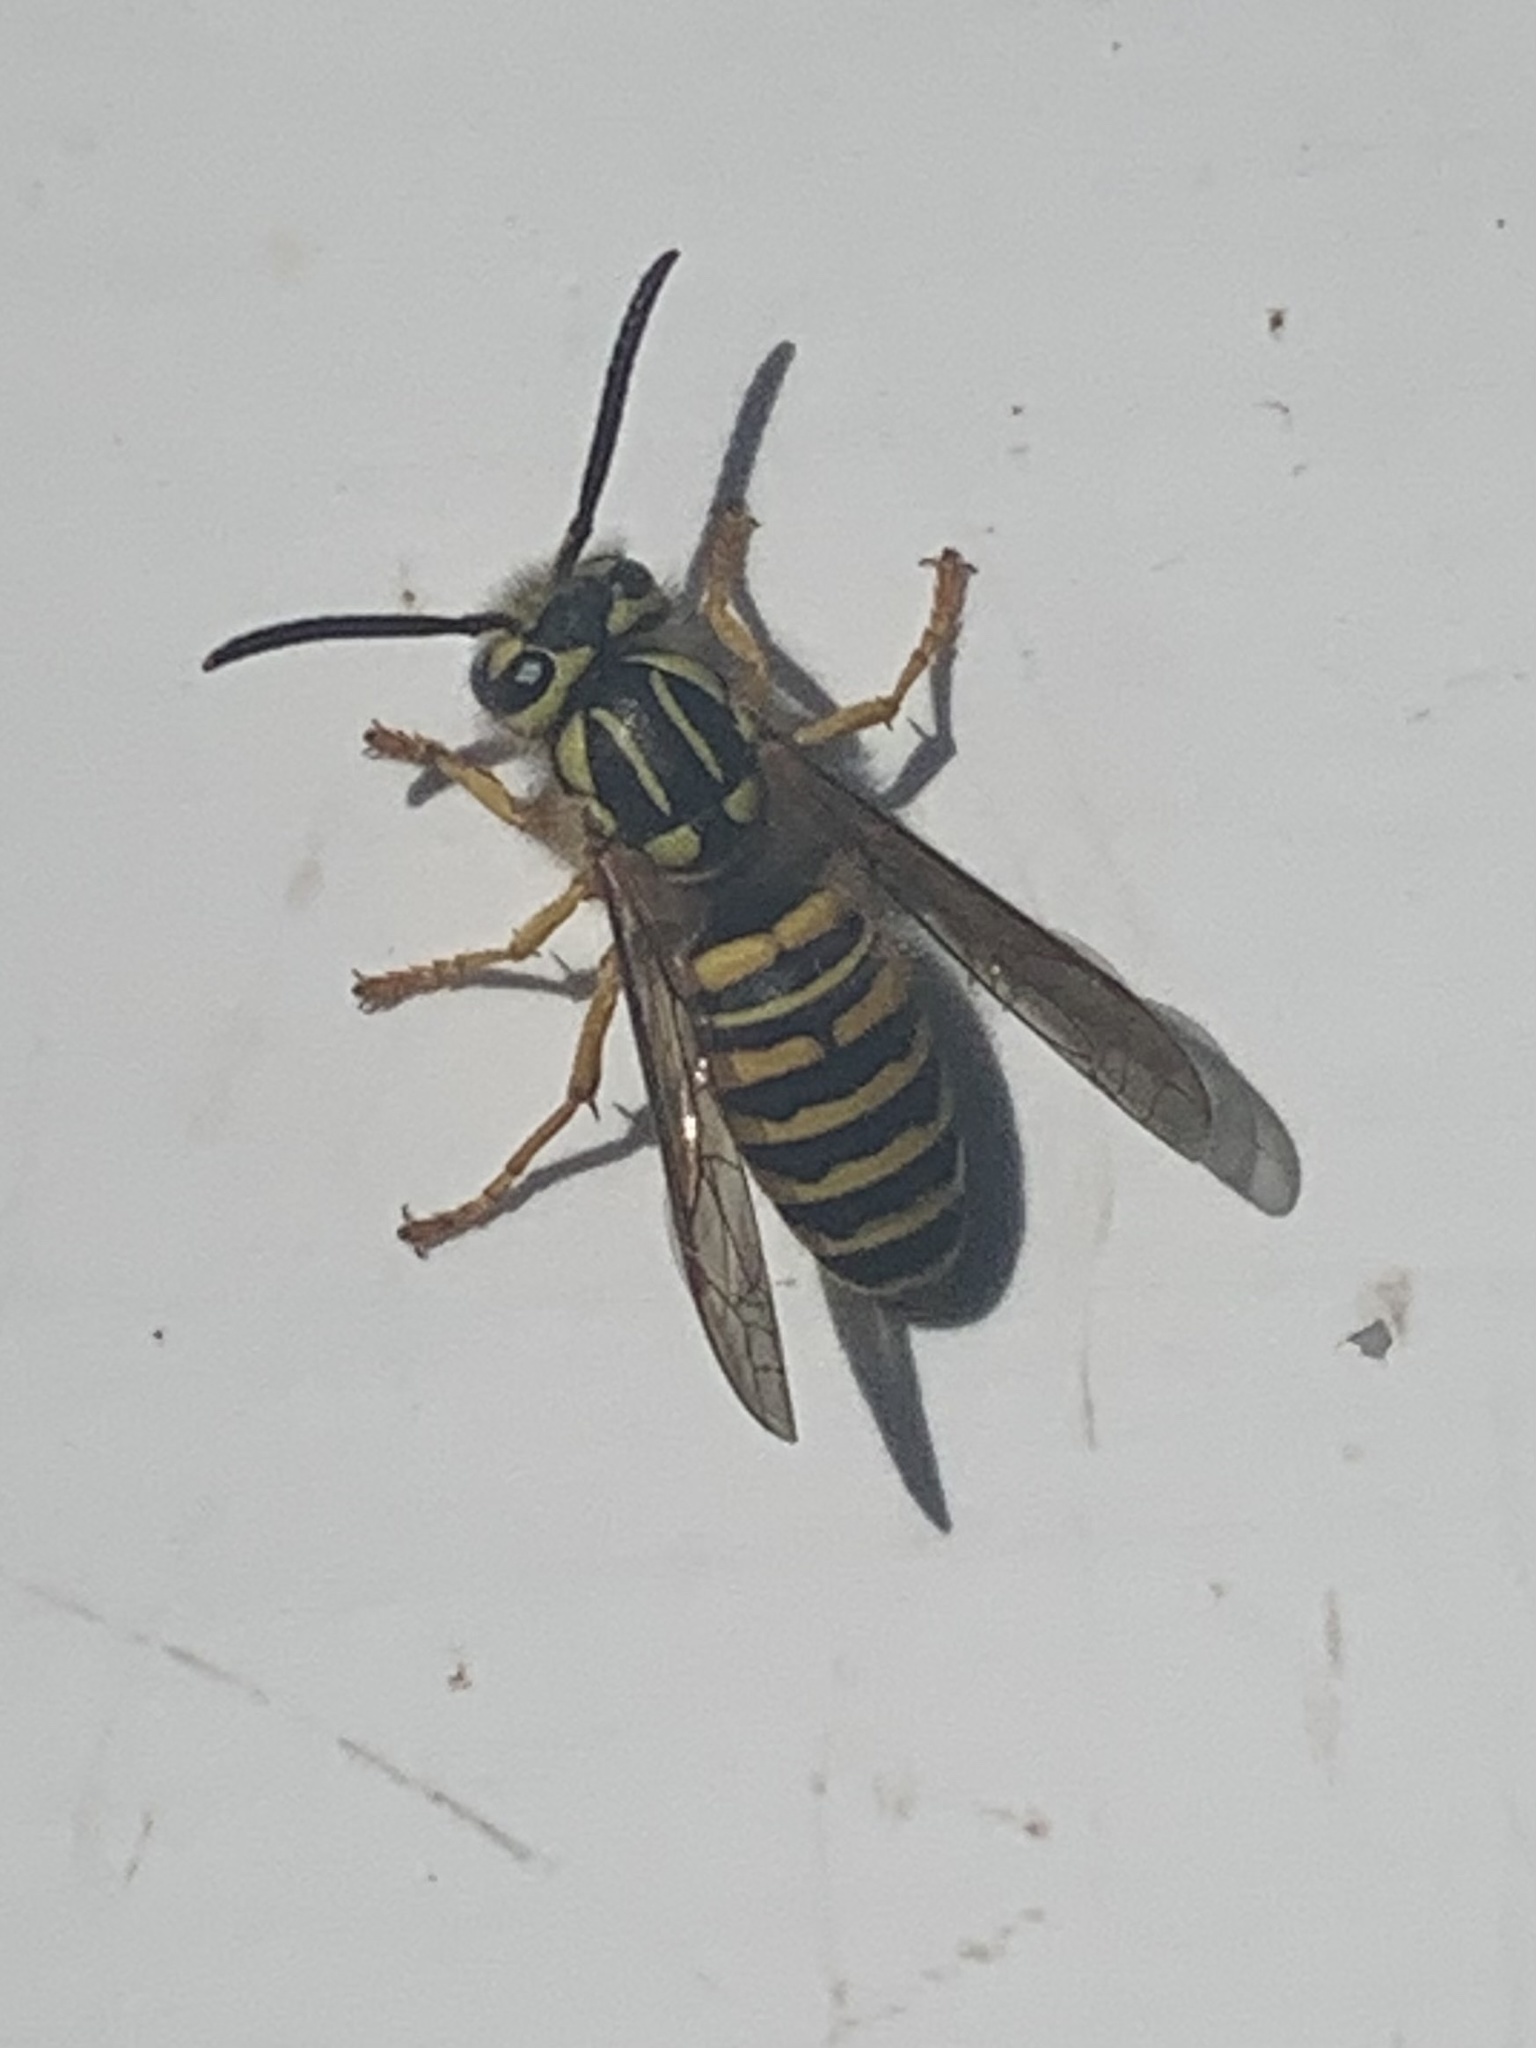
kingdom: Animalia
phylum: Arthropoda
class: Insecta
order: Hymenoptera
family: Vespidae
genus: Vespula
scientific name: Vespula squamosa
